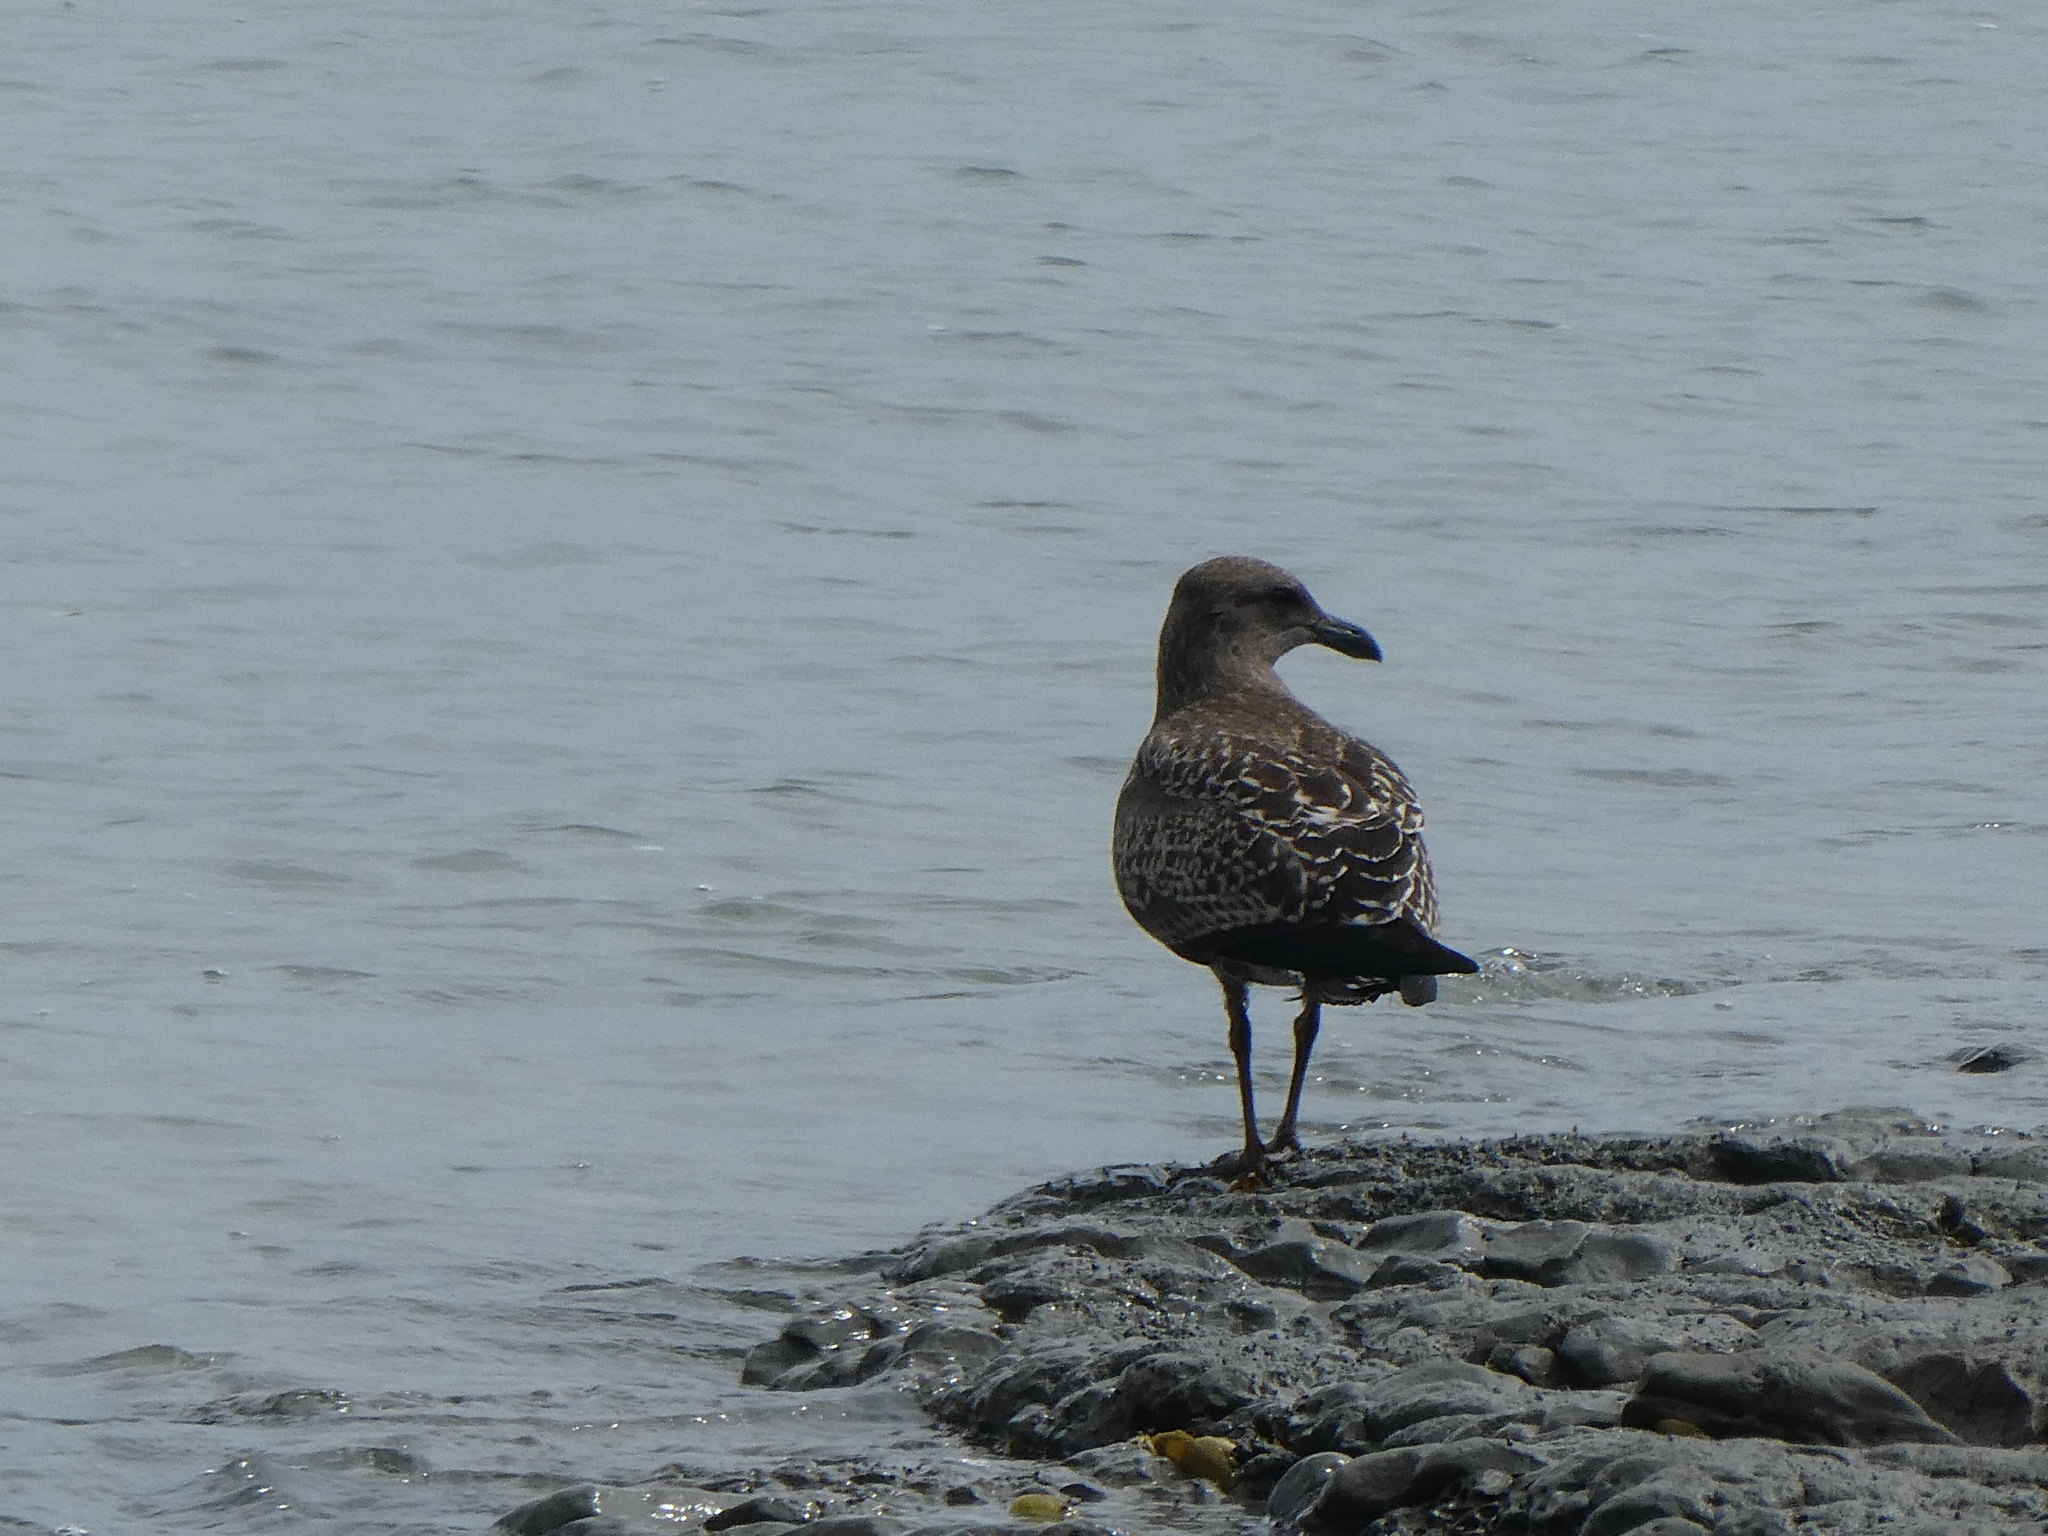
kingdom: Animalia
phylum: Chordata
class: Aves
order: Charadriiformes
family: Laridae
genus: Larus
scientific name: Larus dominicanus
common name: Kelp gull
